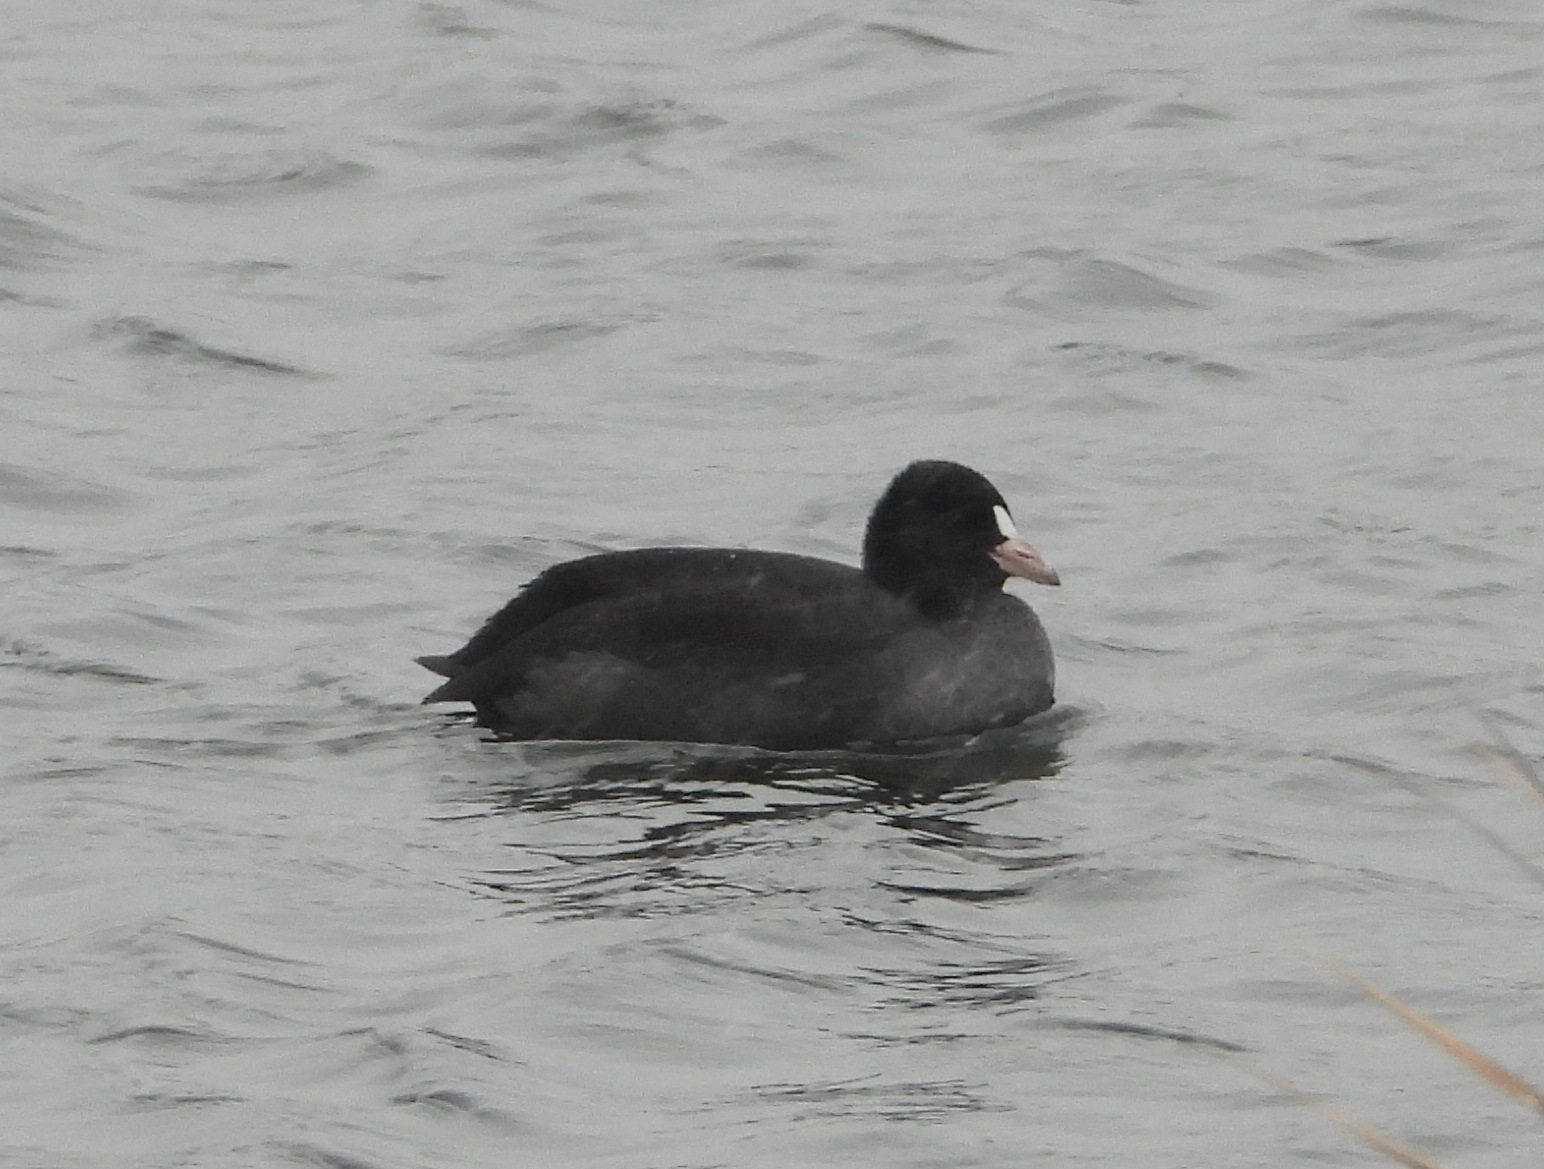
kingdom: Animalia
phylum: Chordata
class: Aves
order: Gruiformes
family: Rallidae
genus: Fulica
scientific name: Fulica atra
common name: Eurasian coot
